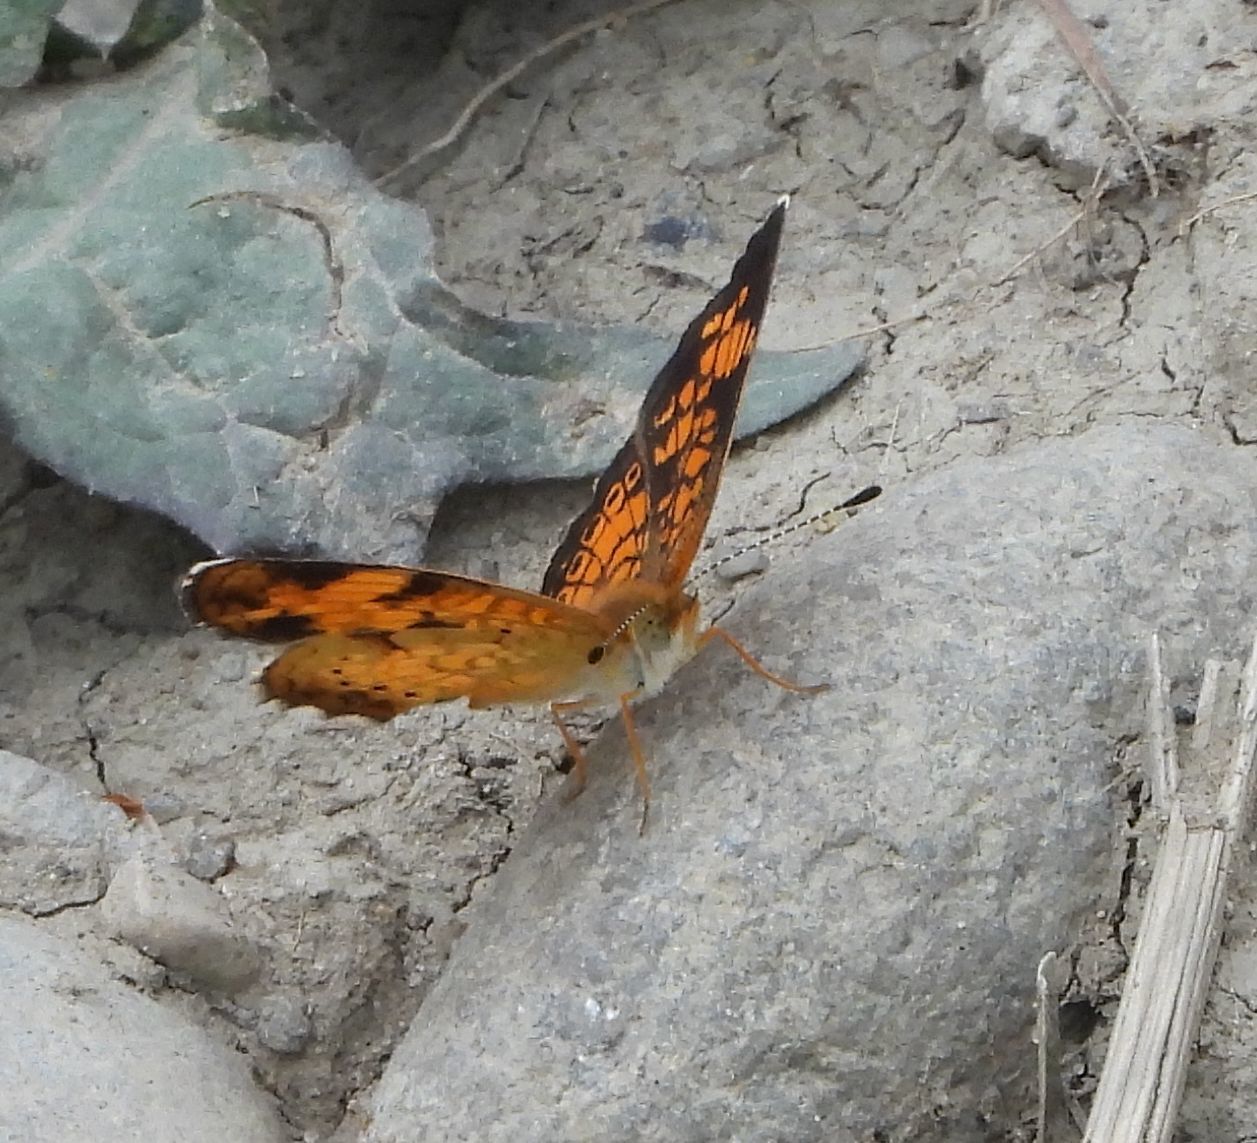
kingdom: Animalia
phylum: Arthropoda
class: Insecta
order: Lepidoptera
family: Nymphalidae
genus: Phyciodes
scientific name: Phyciodes tharos
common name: Pearl crescent
